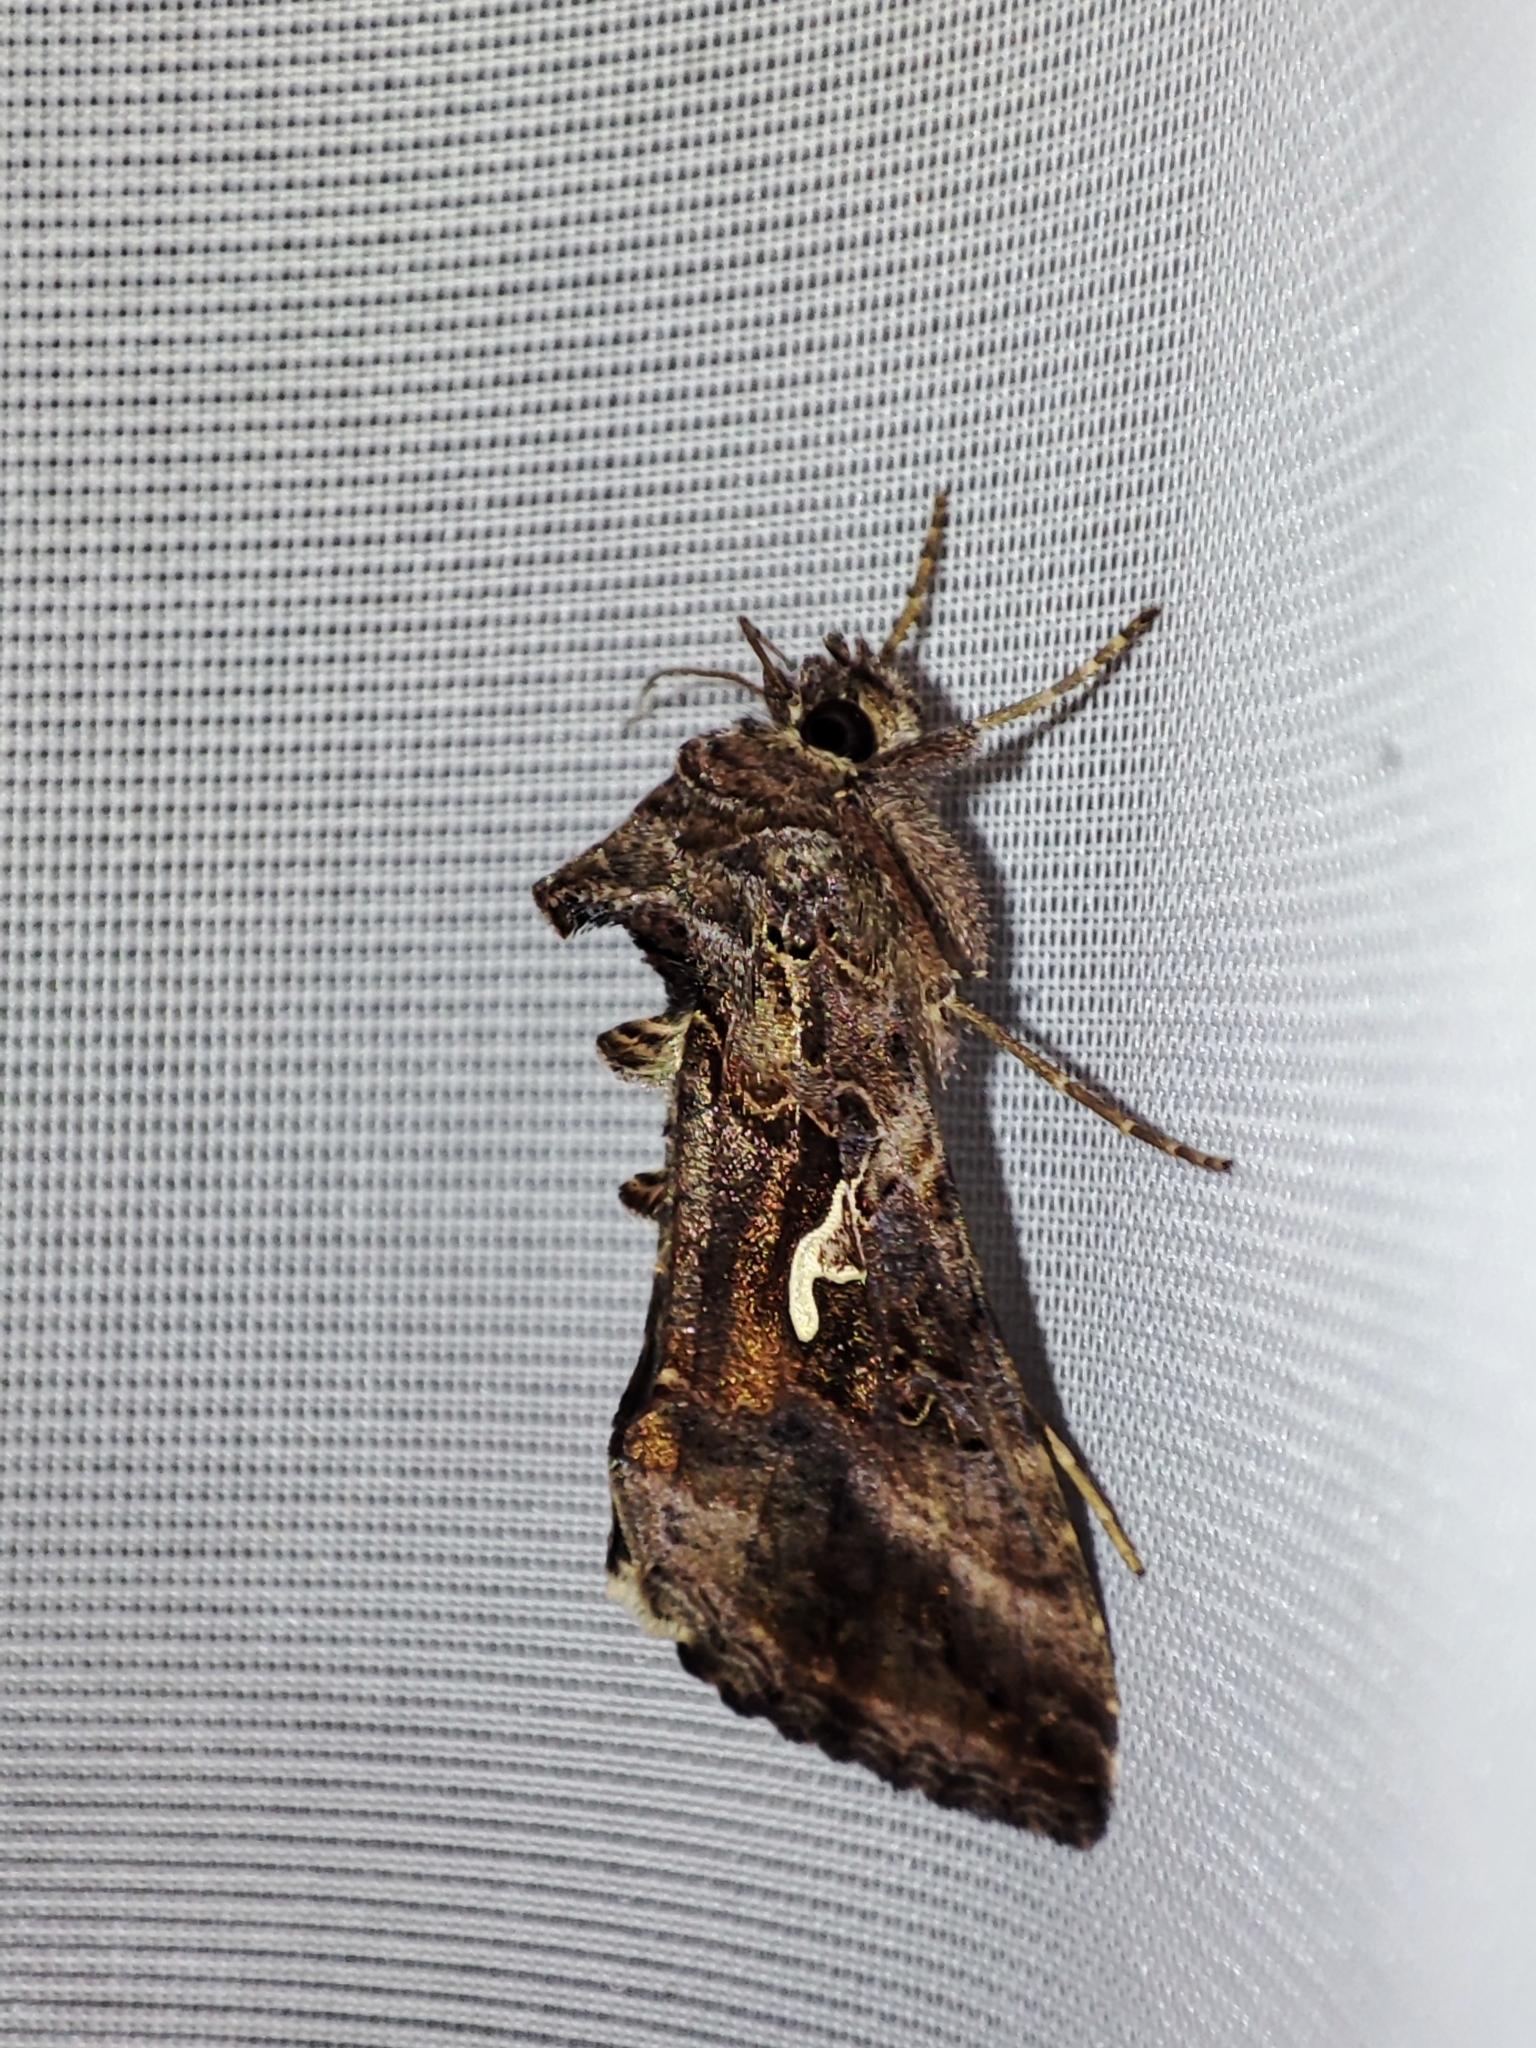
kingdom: Animalia
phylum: Arthropoda
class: Insecta
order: Lepidoptera
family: Noctuidae
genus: Autographa
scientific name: Autographa gamma
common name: Silver y
